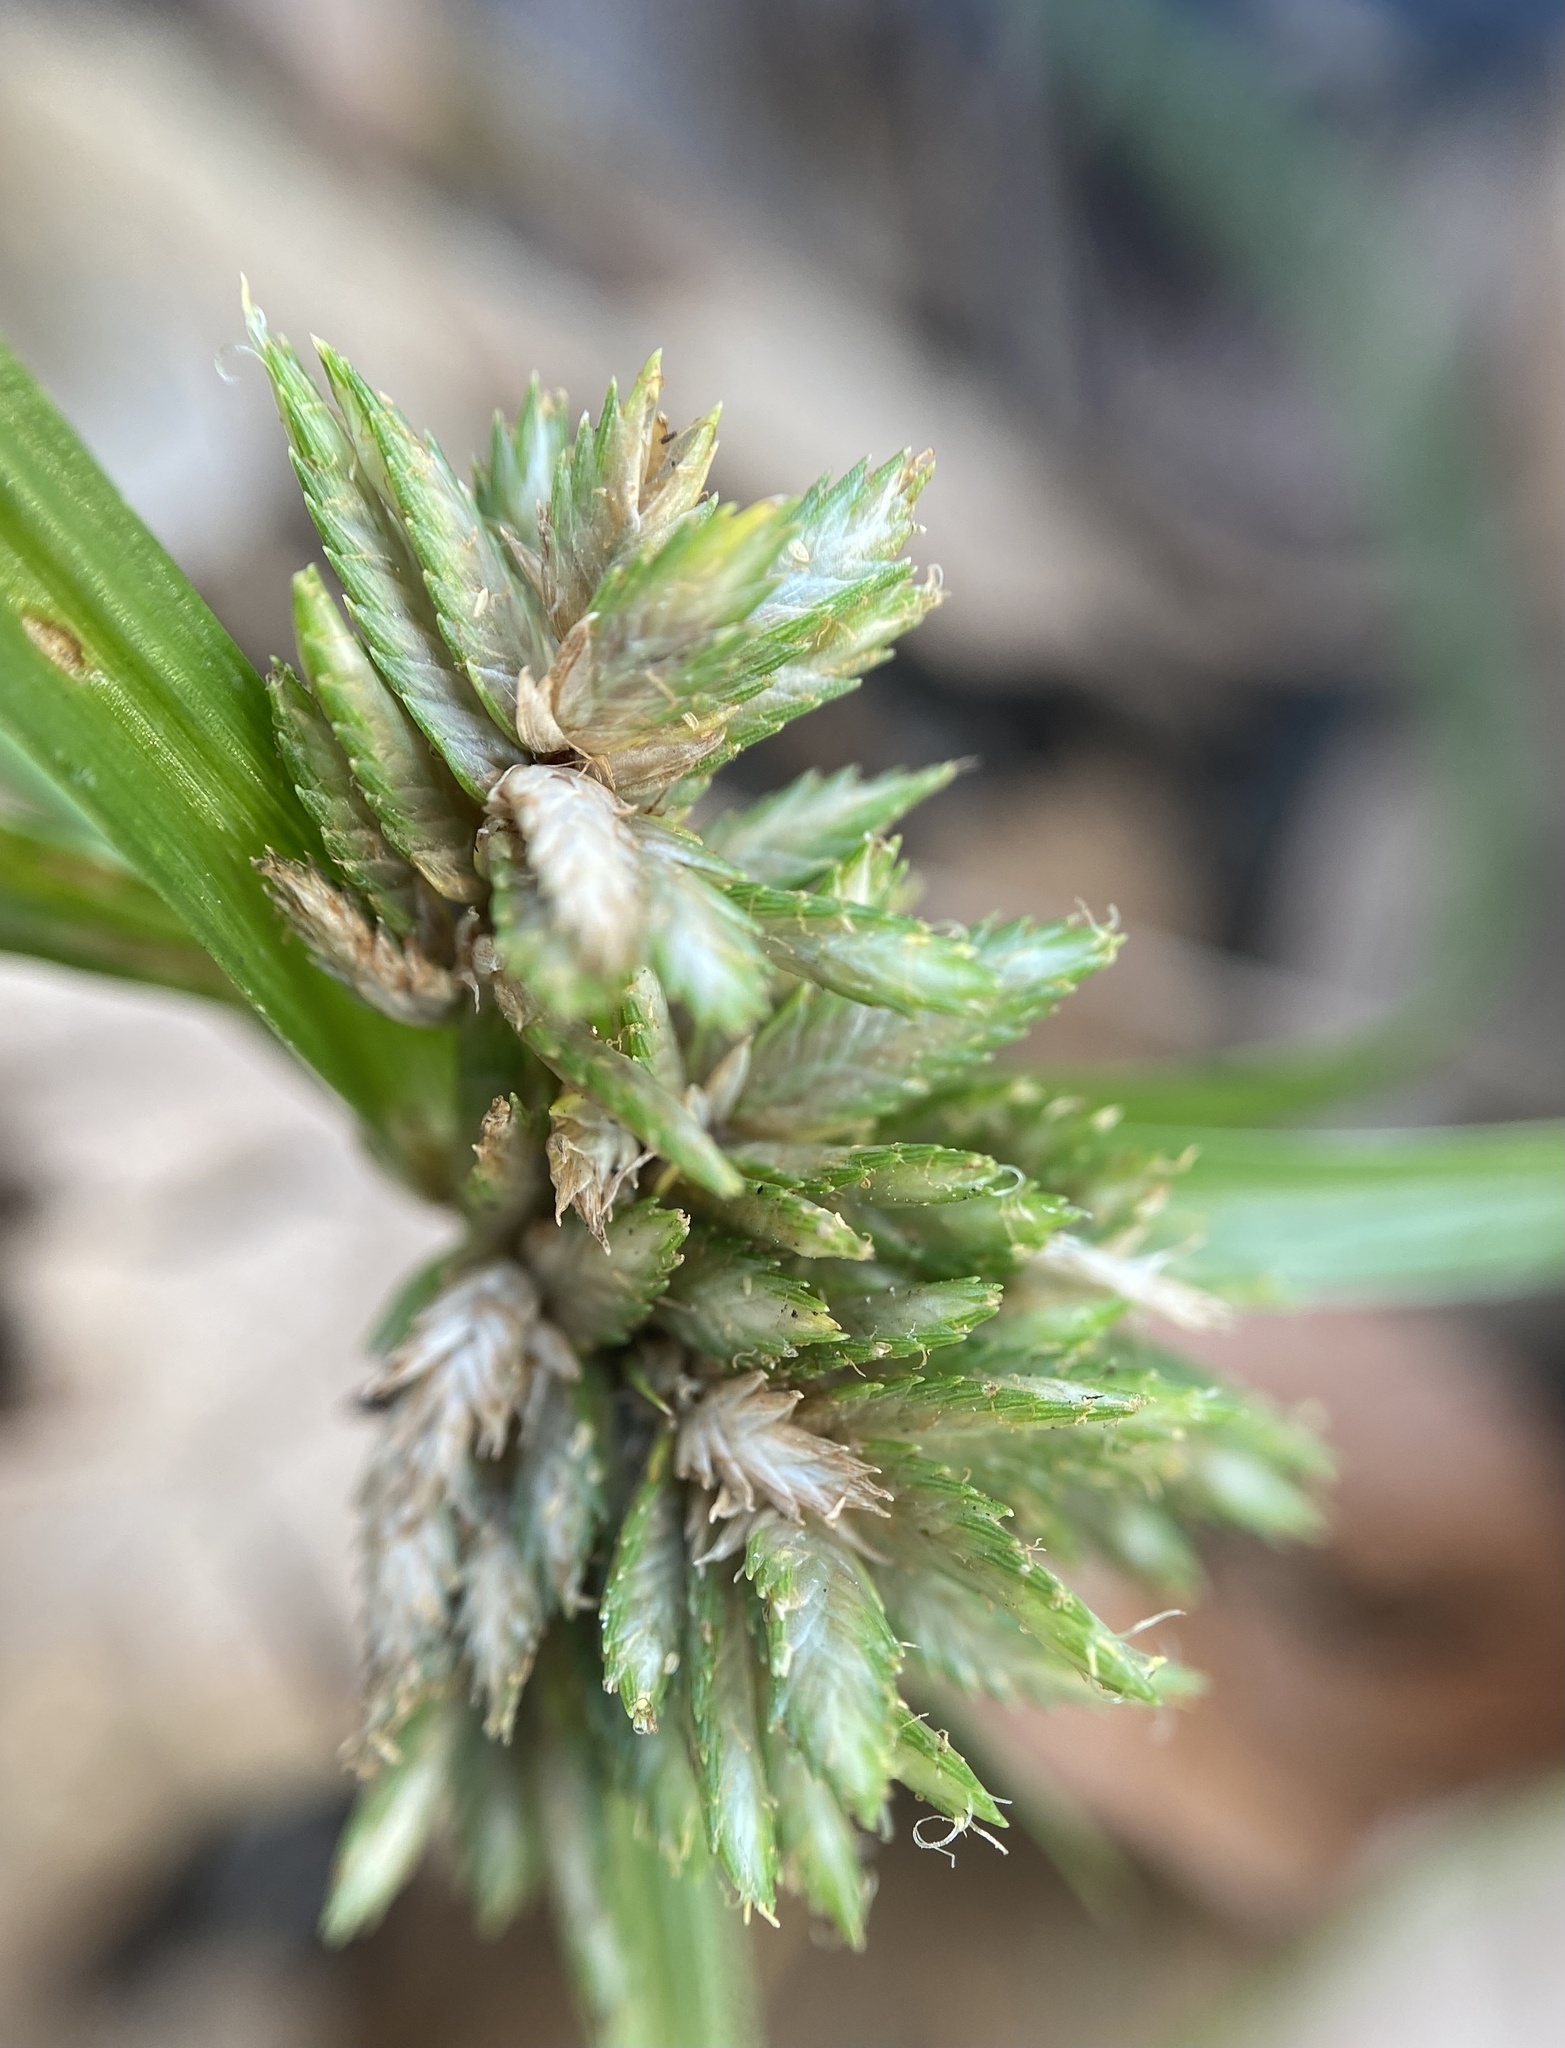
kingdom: Plantae
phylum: Tracheophyta
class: Liliopsida
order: Poales
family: Cyperaceae
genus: Cyperus
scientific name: Cyperus nipponicus
